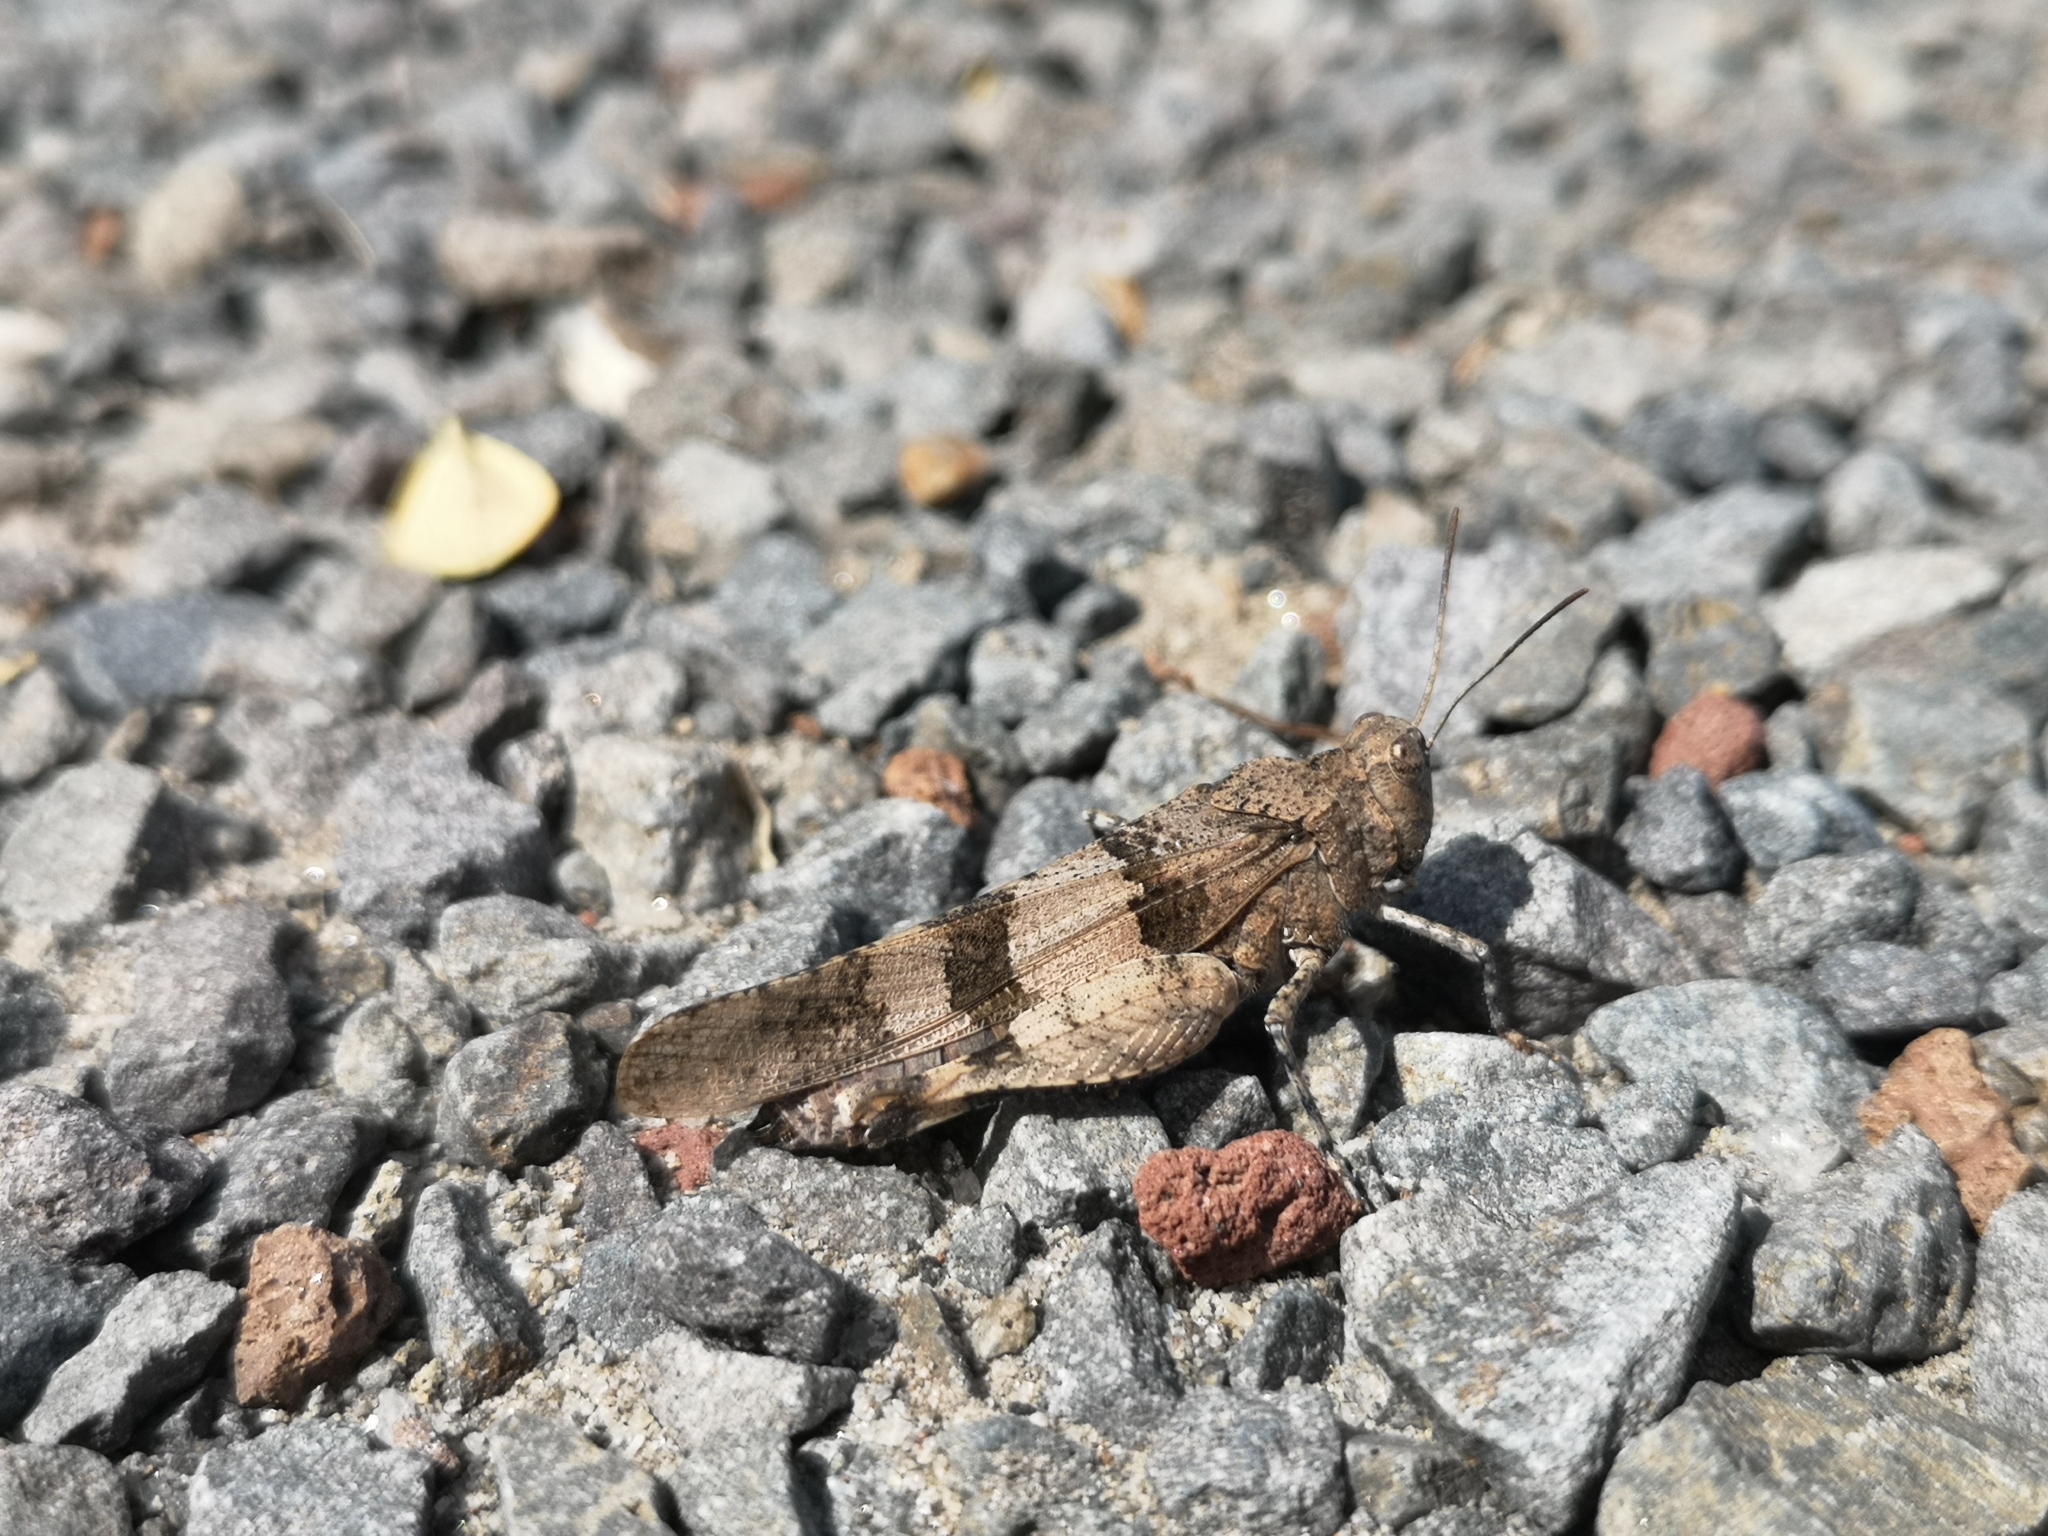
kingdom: Animalia
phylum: Arthropoda
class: Insecta
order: Orthoptera
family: Acrididae
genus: Oedipoda
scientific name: Oedipoda caerulescens
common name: Blue-winged grasshopper
